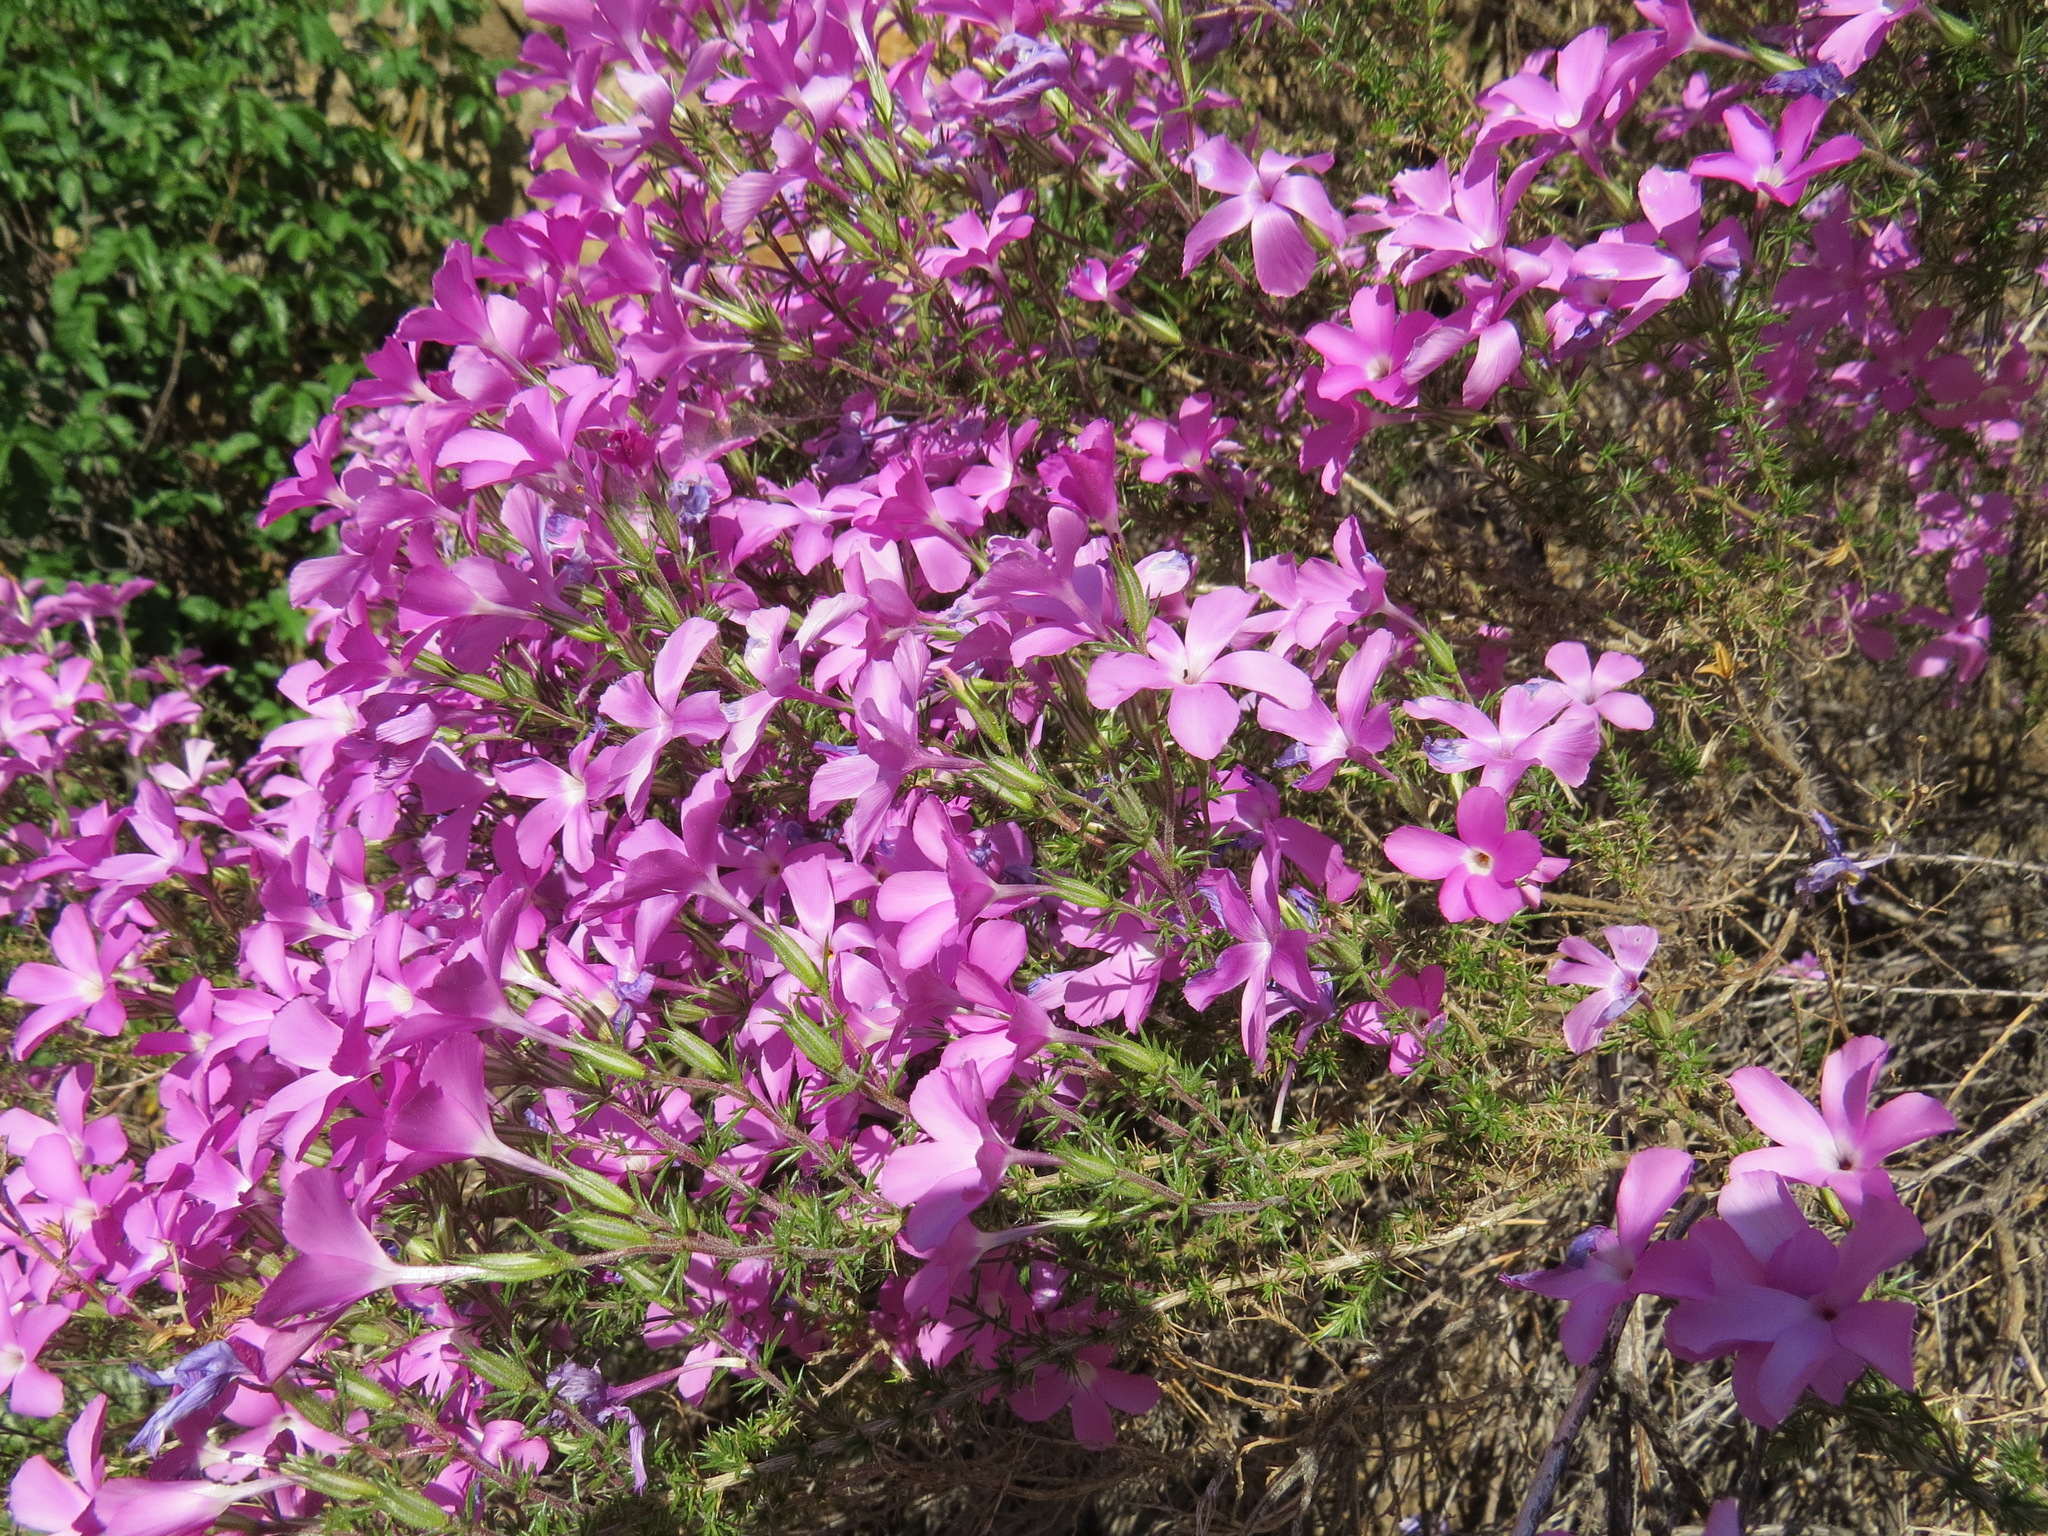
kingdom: Plantae
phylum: Tracheophyta
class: Magnoliopsida
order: Ericales
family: Polemoniaceae
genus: Linanthus
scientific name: Linanthus californicus
